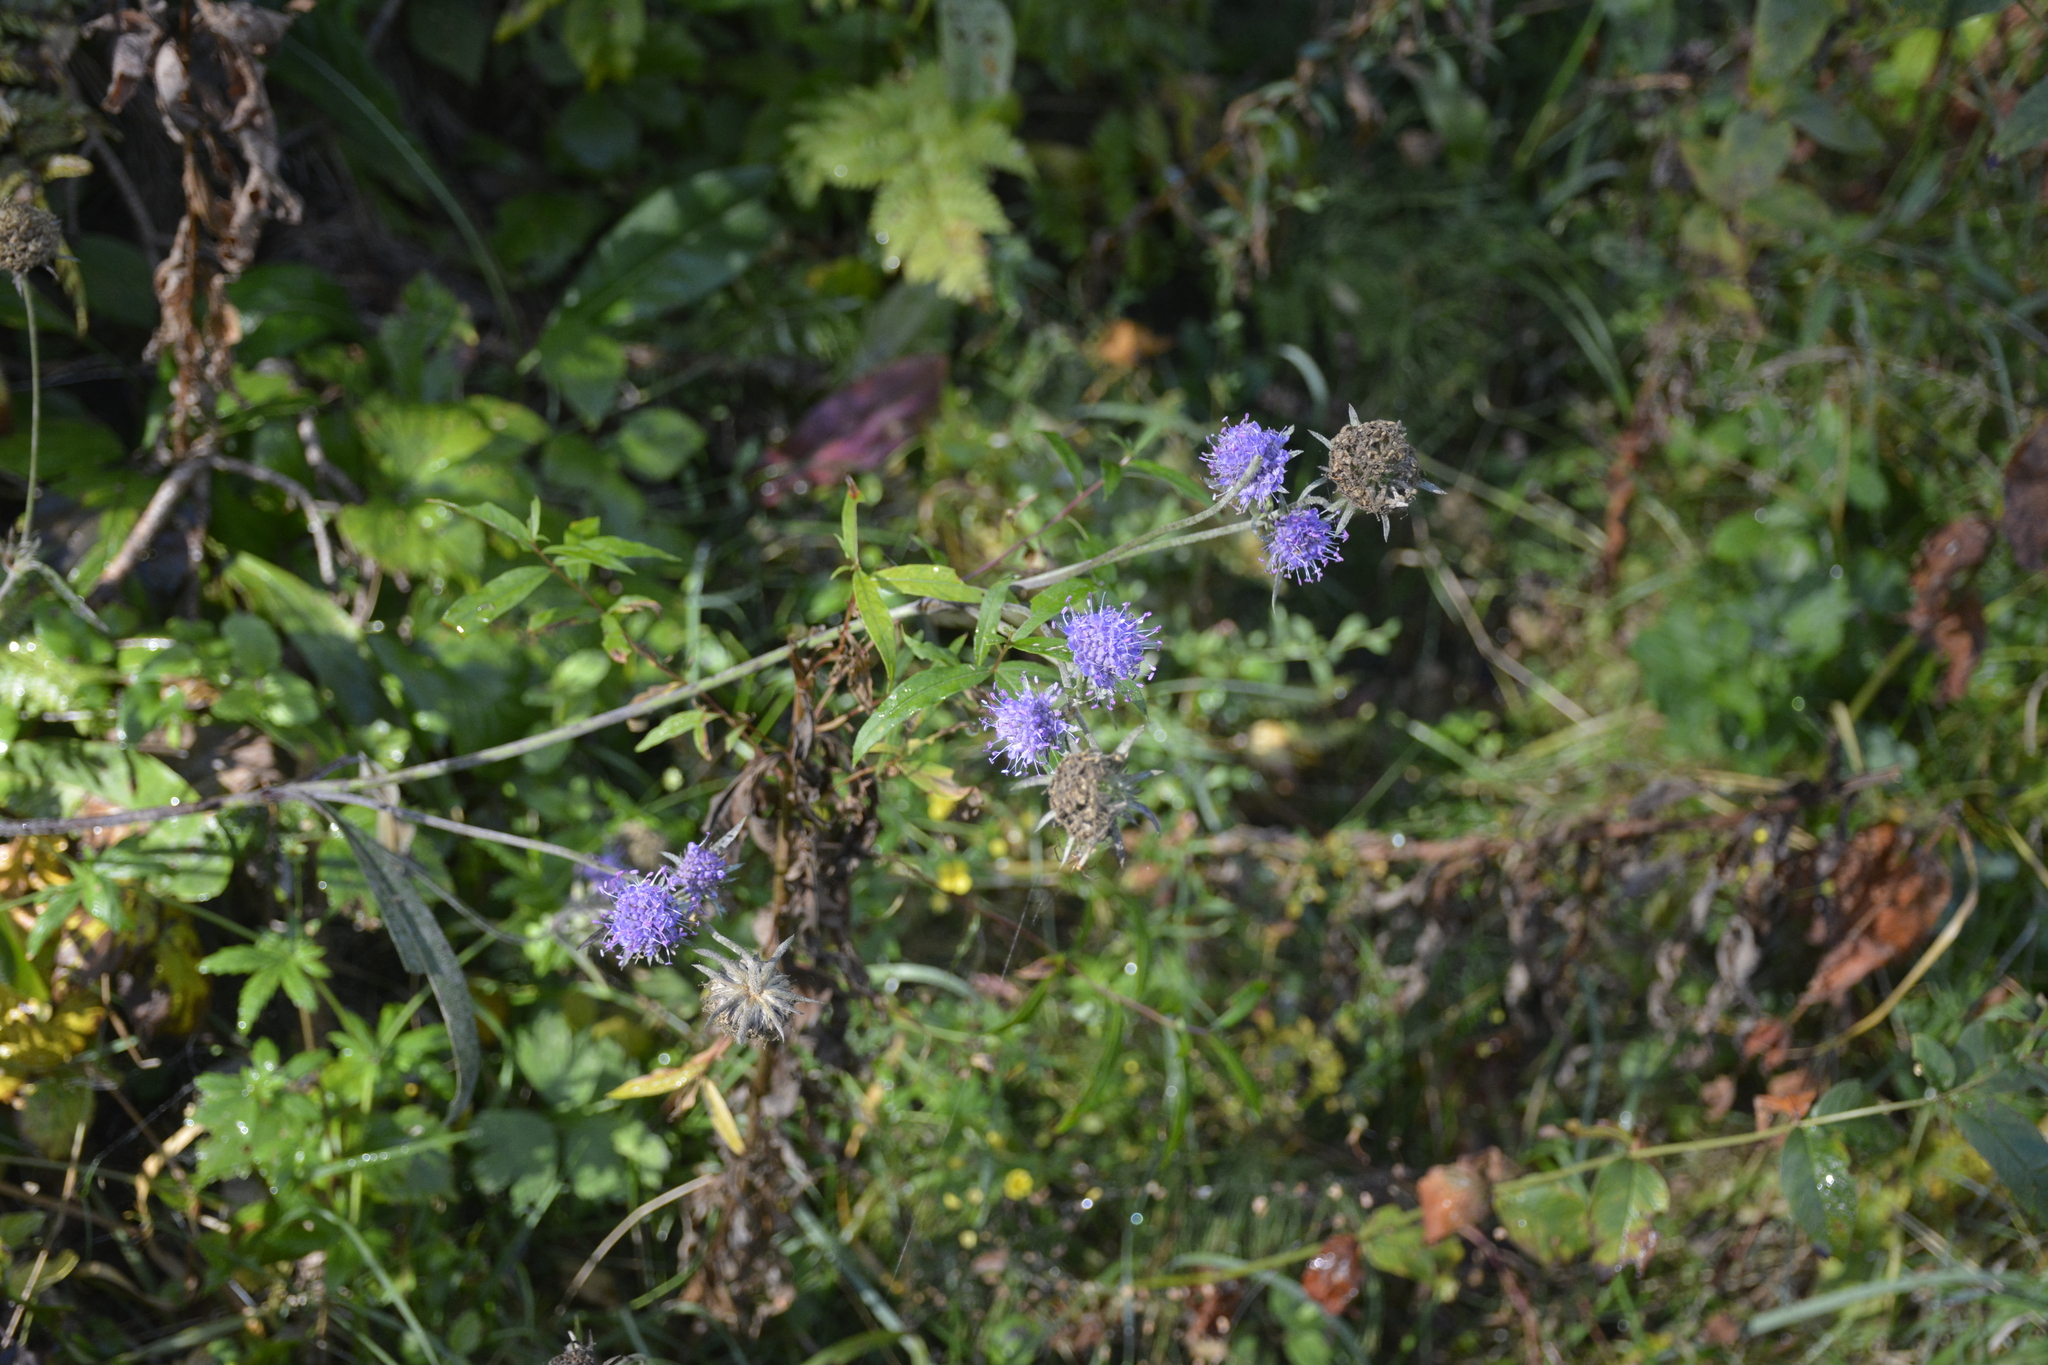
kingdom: Plantae
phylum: Tracheophyta
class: Magnoliopsida
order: Dipsacales
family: Caprifoliaceae
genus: Succisa
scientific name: Succisa pratensis
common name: Devil's-bit
